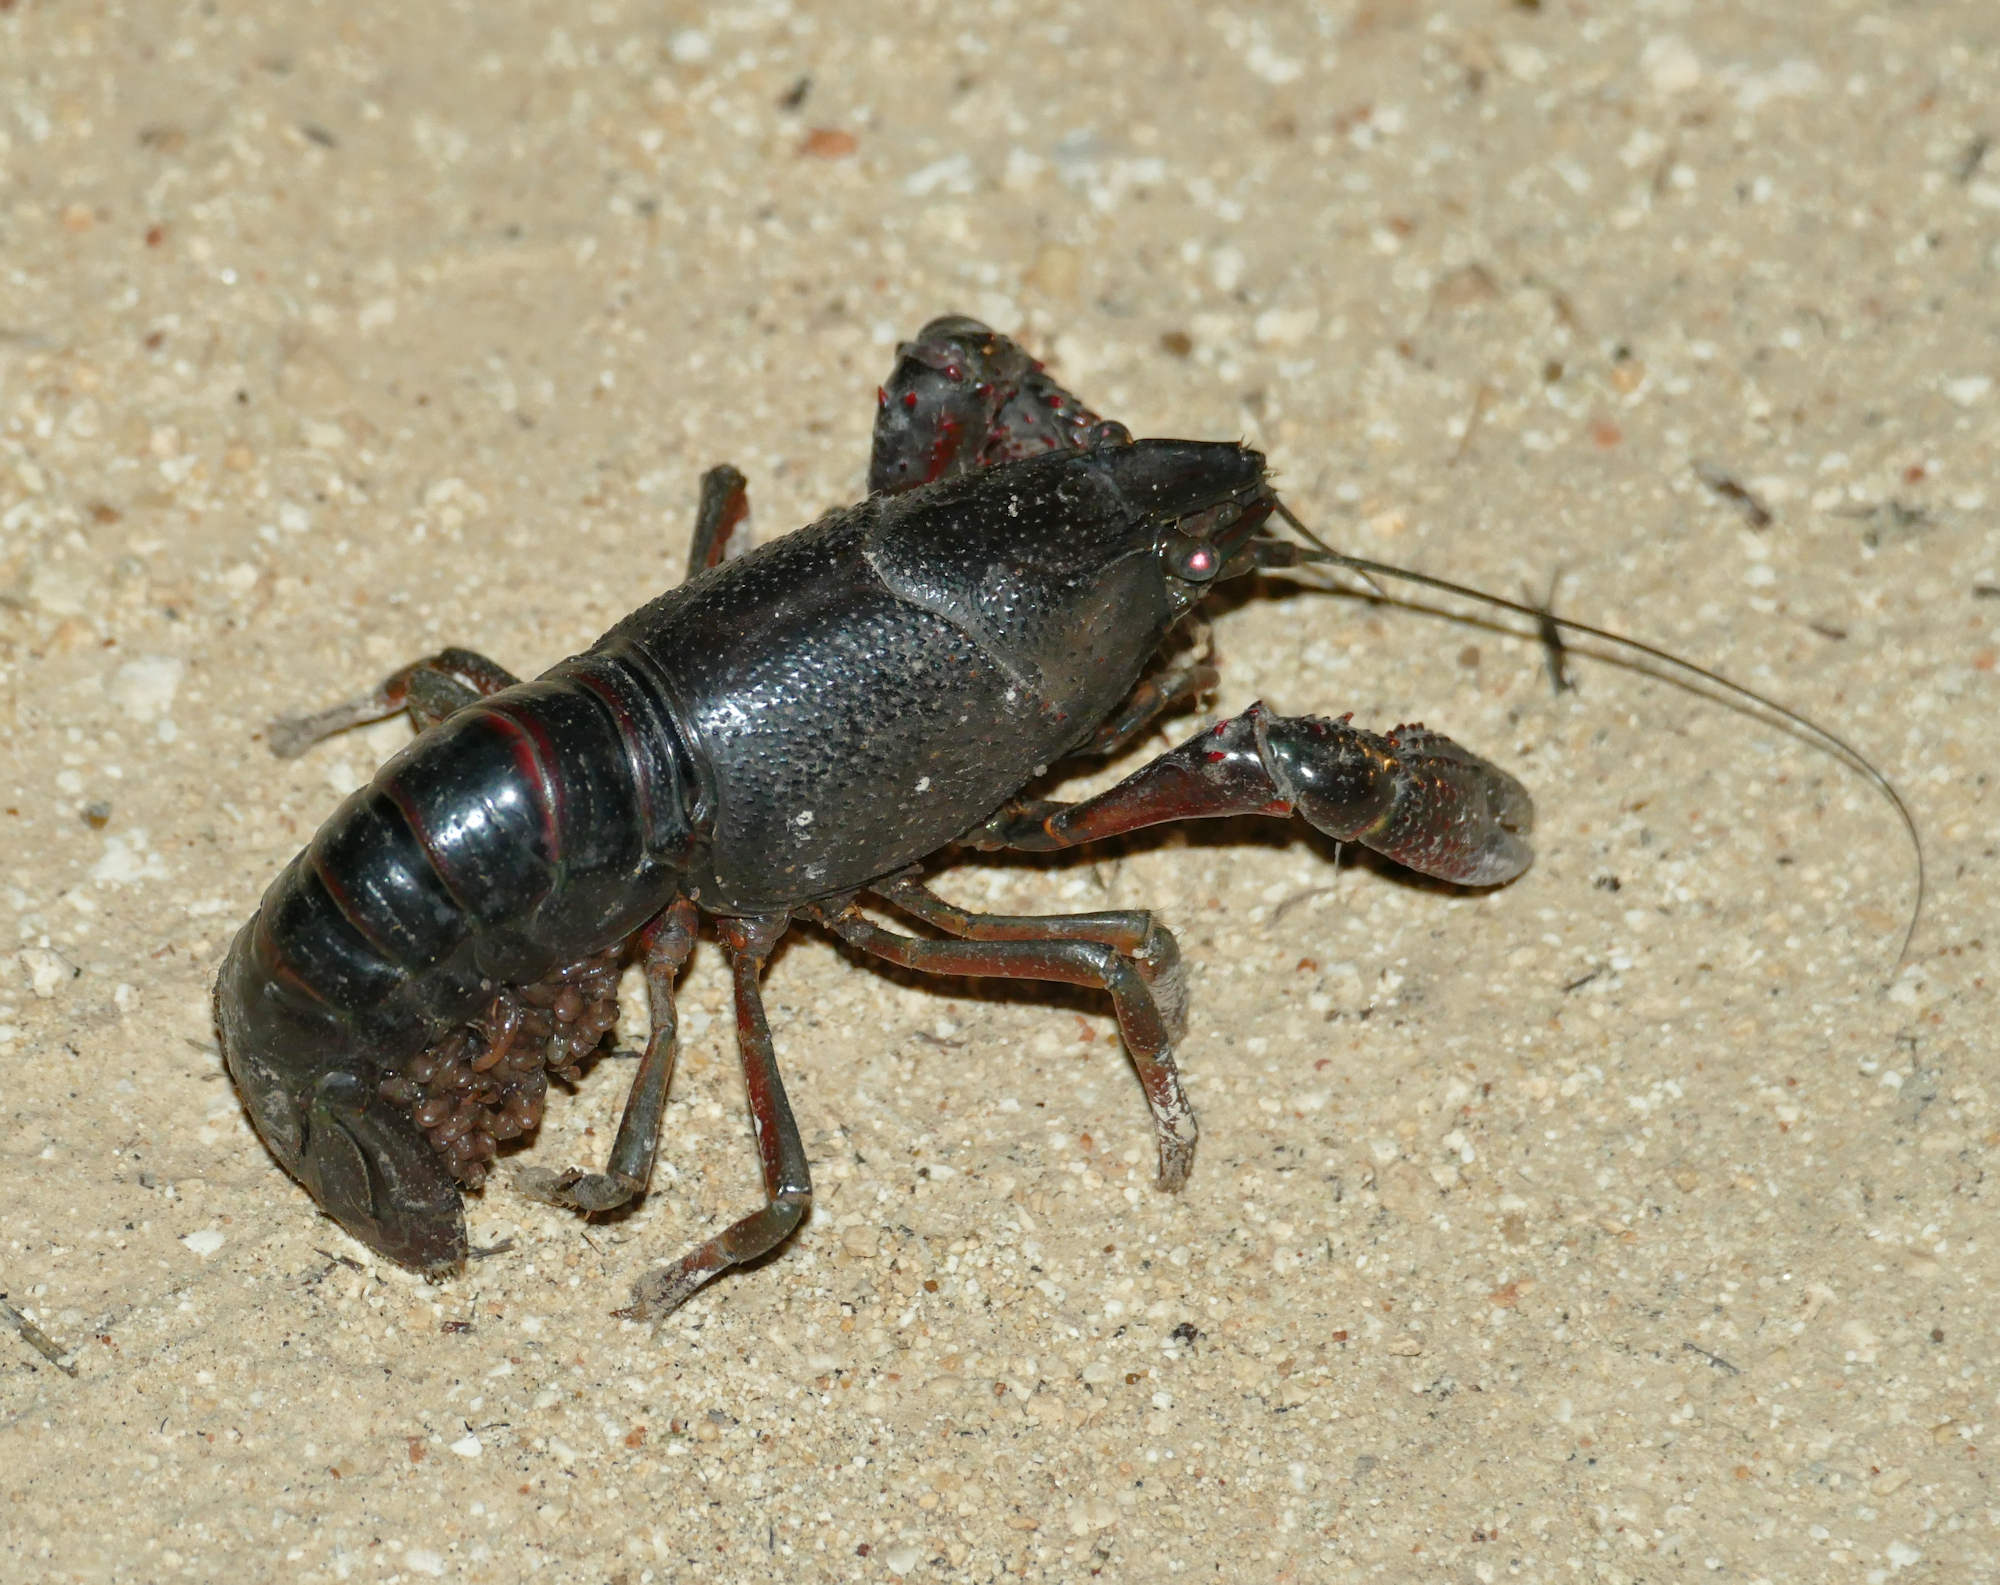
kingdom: Animalia
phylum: Arthropoda
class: Malacostraca
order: Decapoda
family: Cambaridae
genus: Procambarus
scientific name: Procambarus clarkii
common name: Red swamp crayfish
